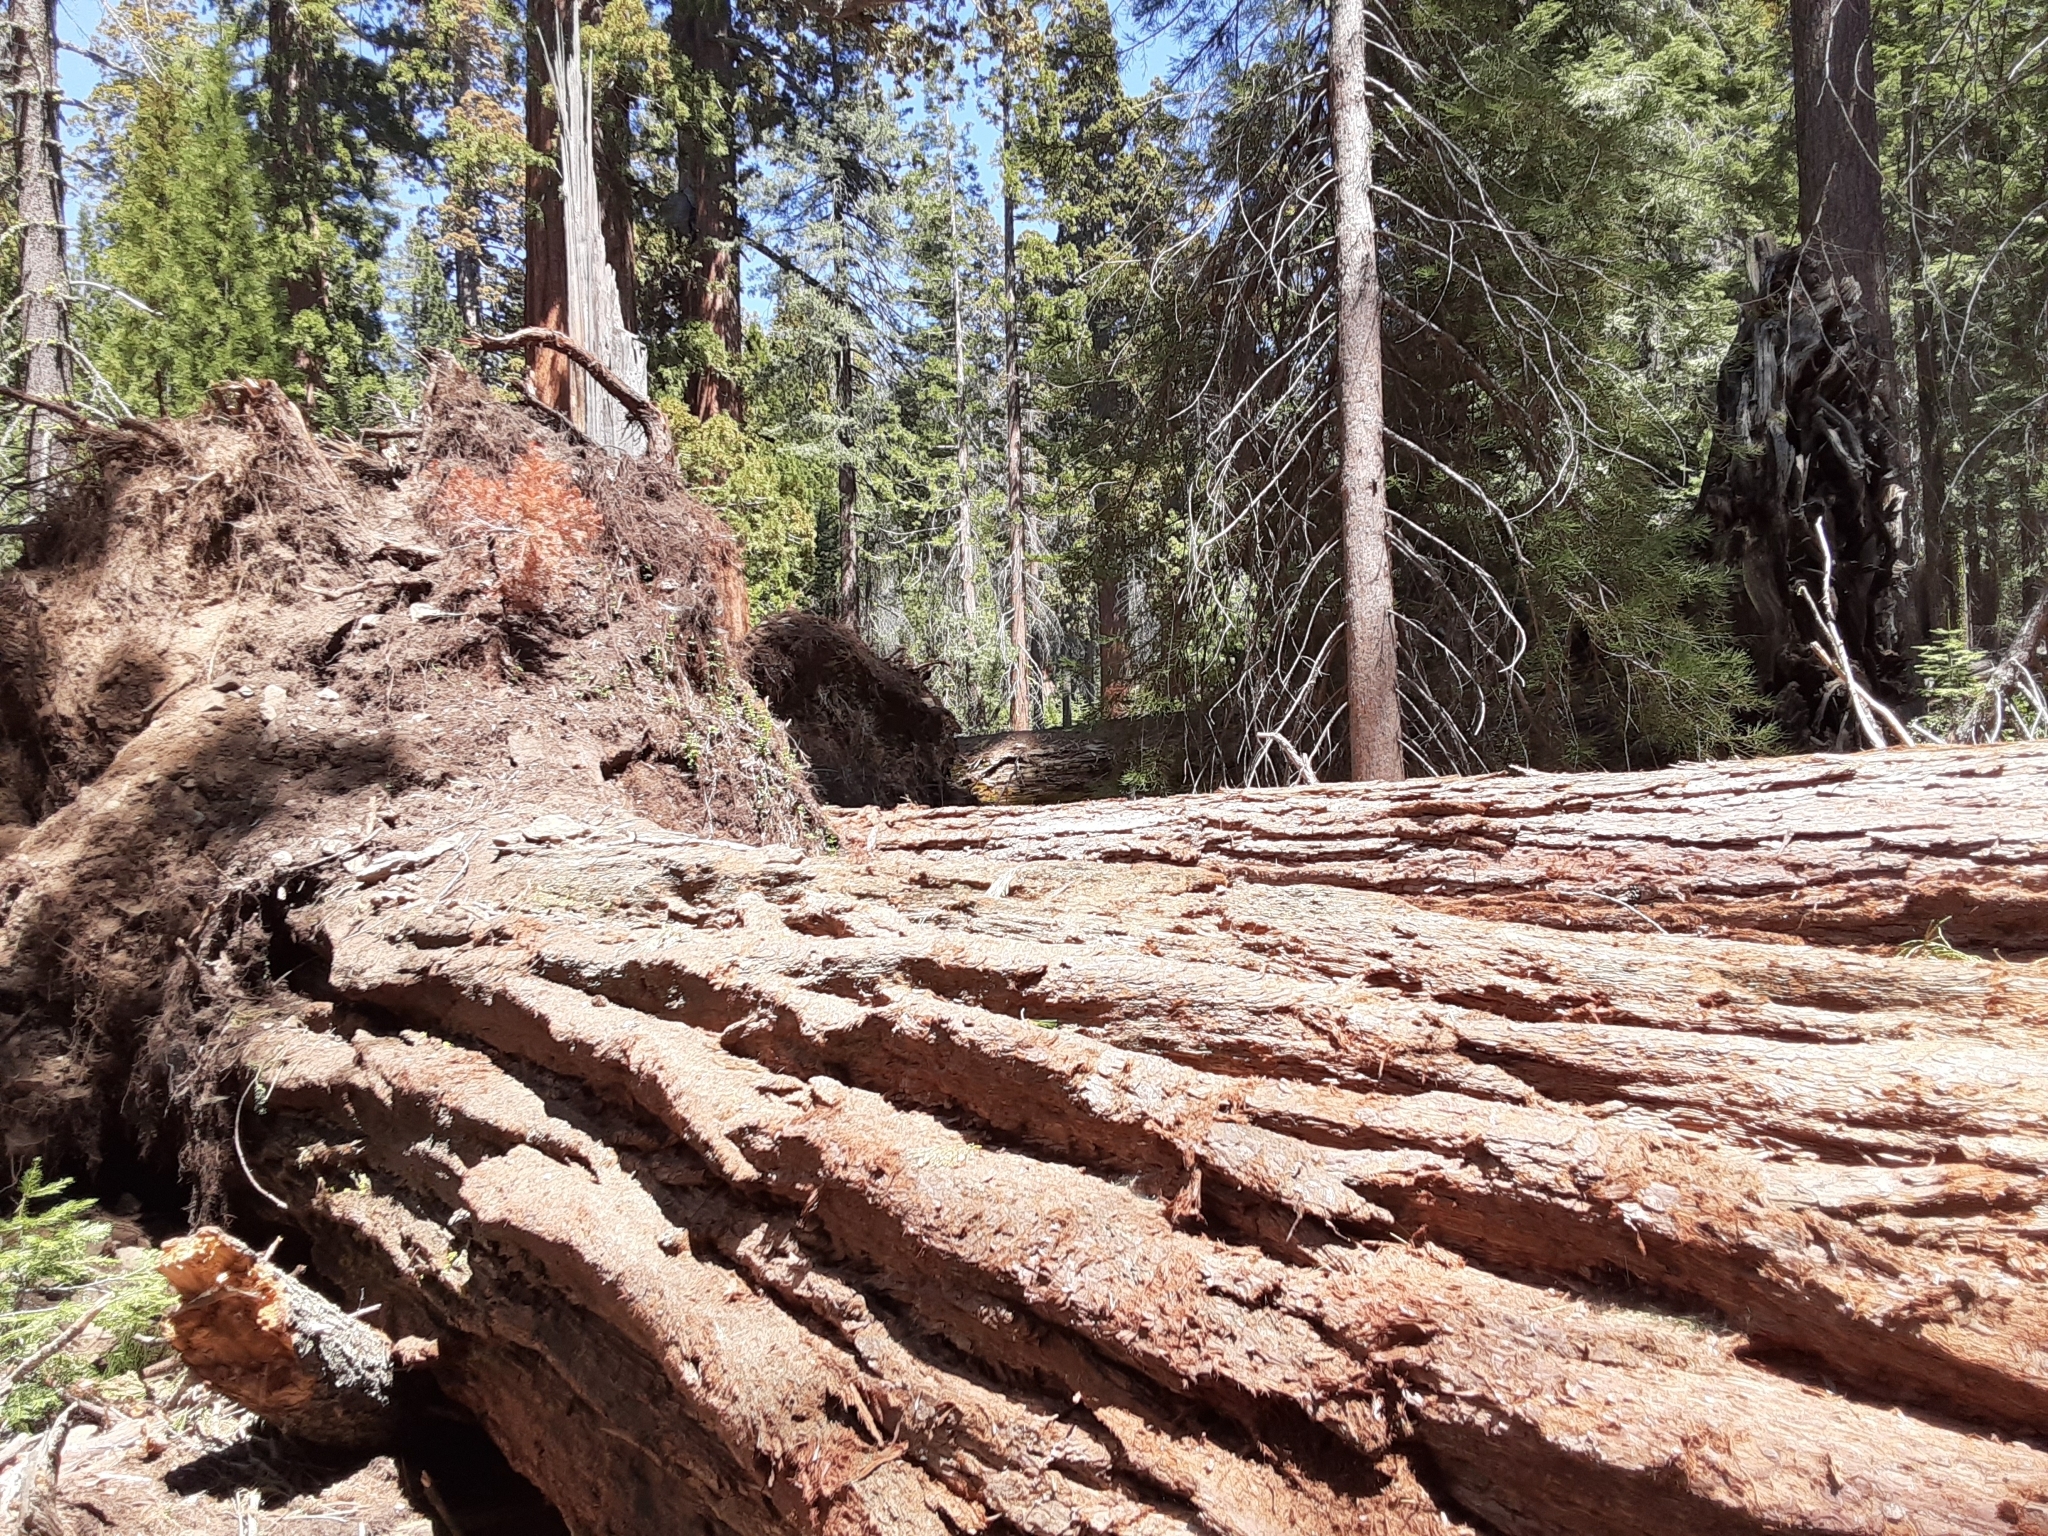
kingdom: Plantae
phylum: Tracheophyta
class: Pinopsida
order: Pinales
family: Cupressaceae
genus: Sequoiadendron
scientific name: Sequoiadendron giganteum
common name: Wellingtonia
